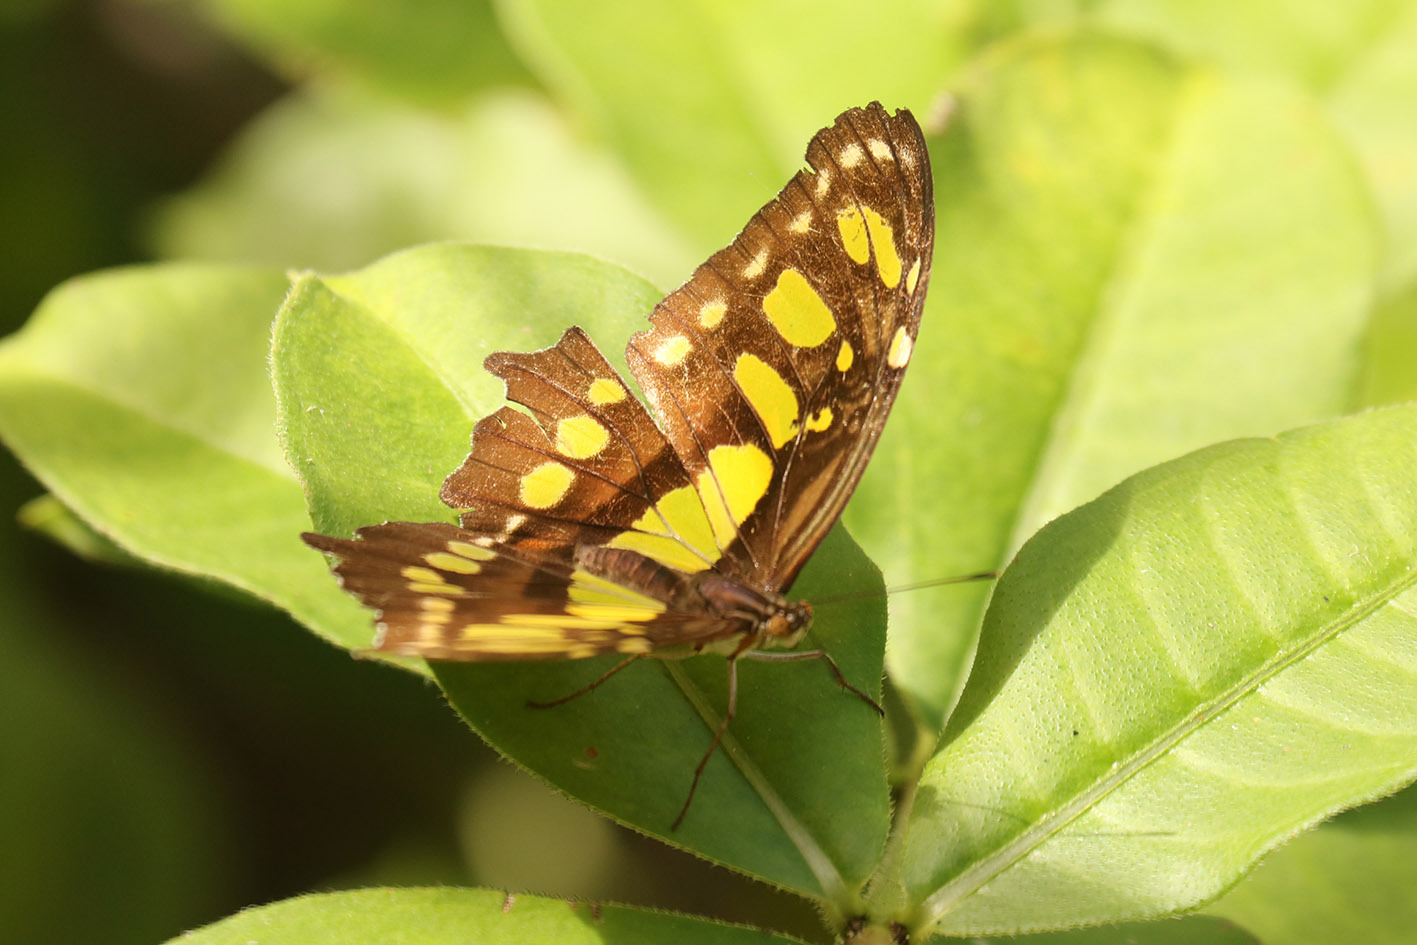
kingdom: Animalia
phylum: Arthropoda
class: Insecta
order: Lepidoptera
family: Nymphalidae
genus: Siproeta
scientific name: Siproeta stelenes
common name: Malachite
